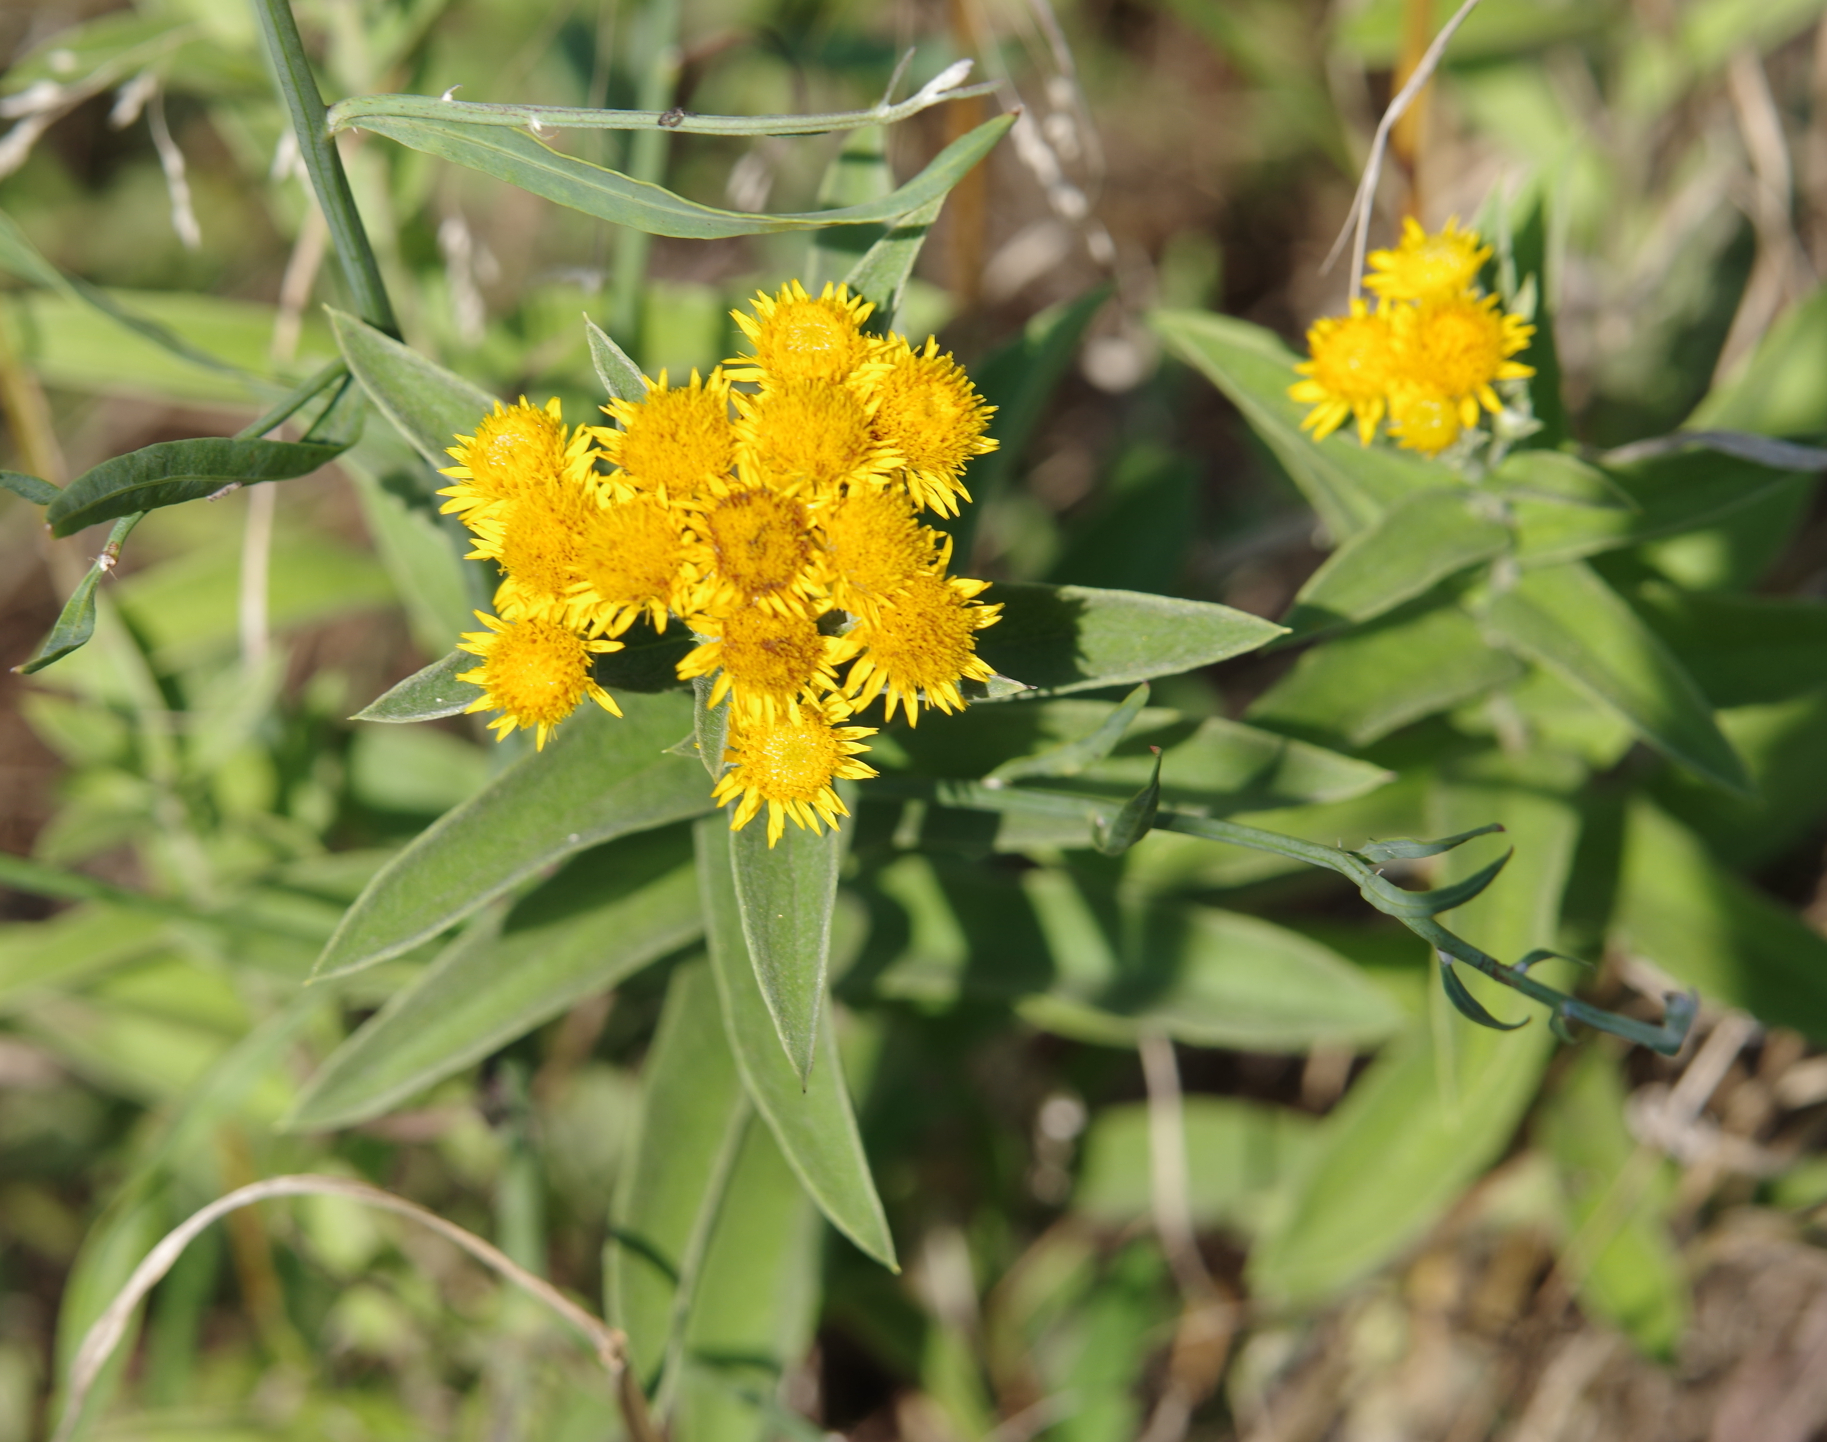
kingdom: Plantae
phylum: Tracheophyta
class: Magnoliopsida
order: Asterales
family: Asteraceae
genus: Pentanema
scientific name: Pentanema germanicum
